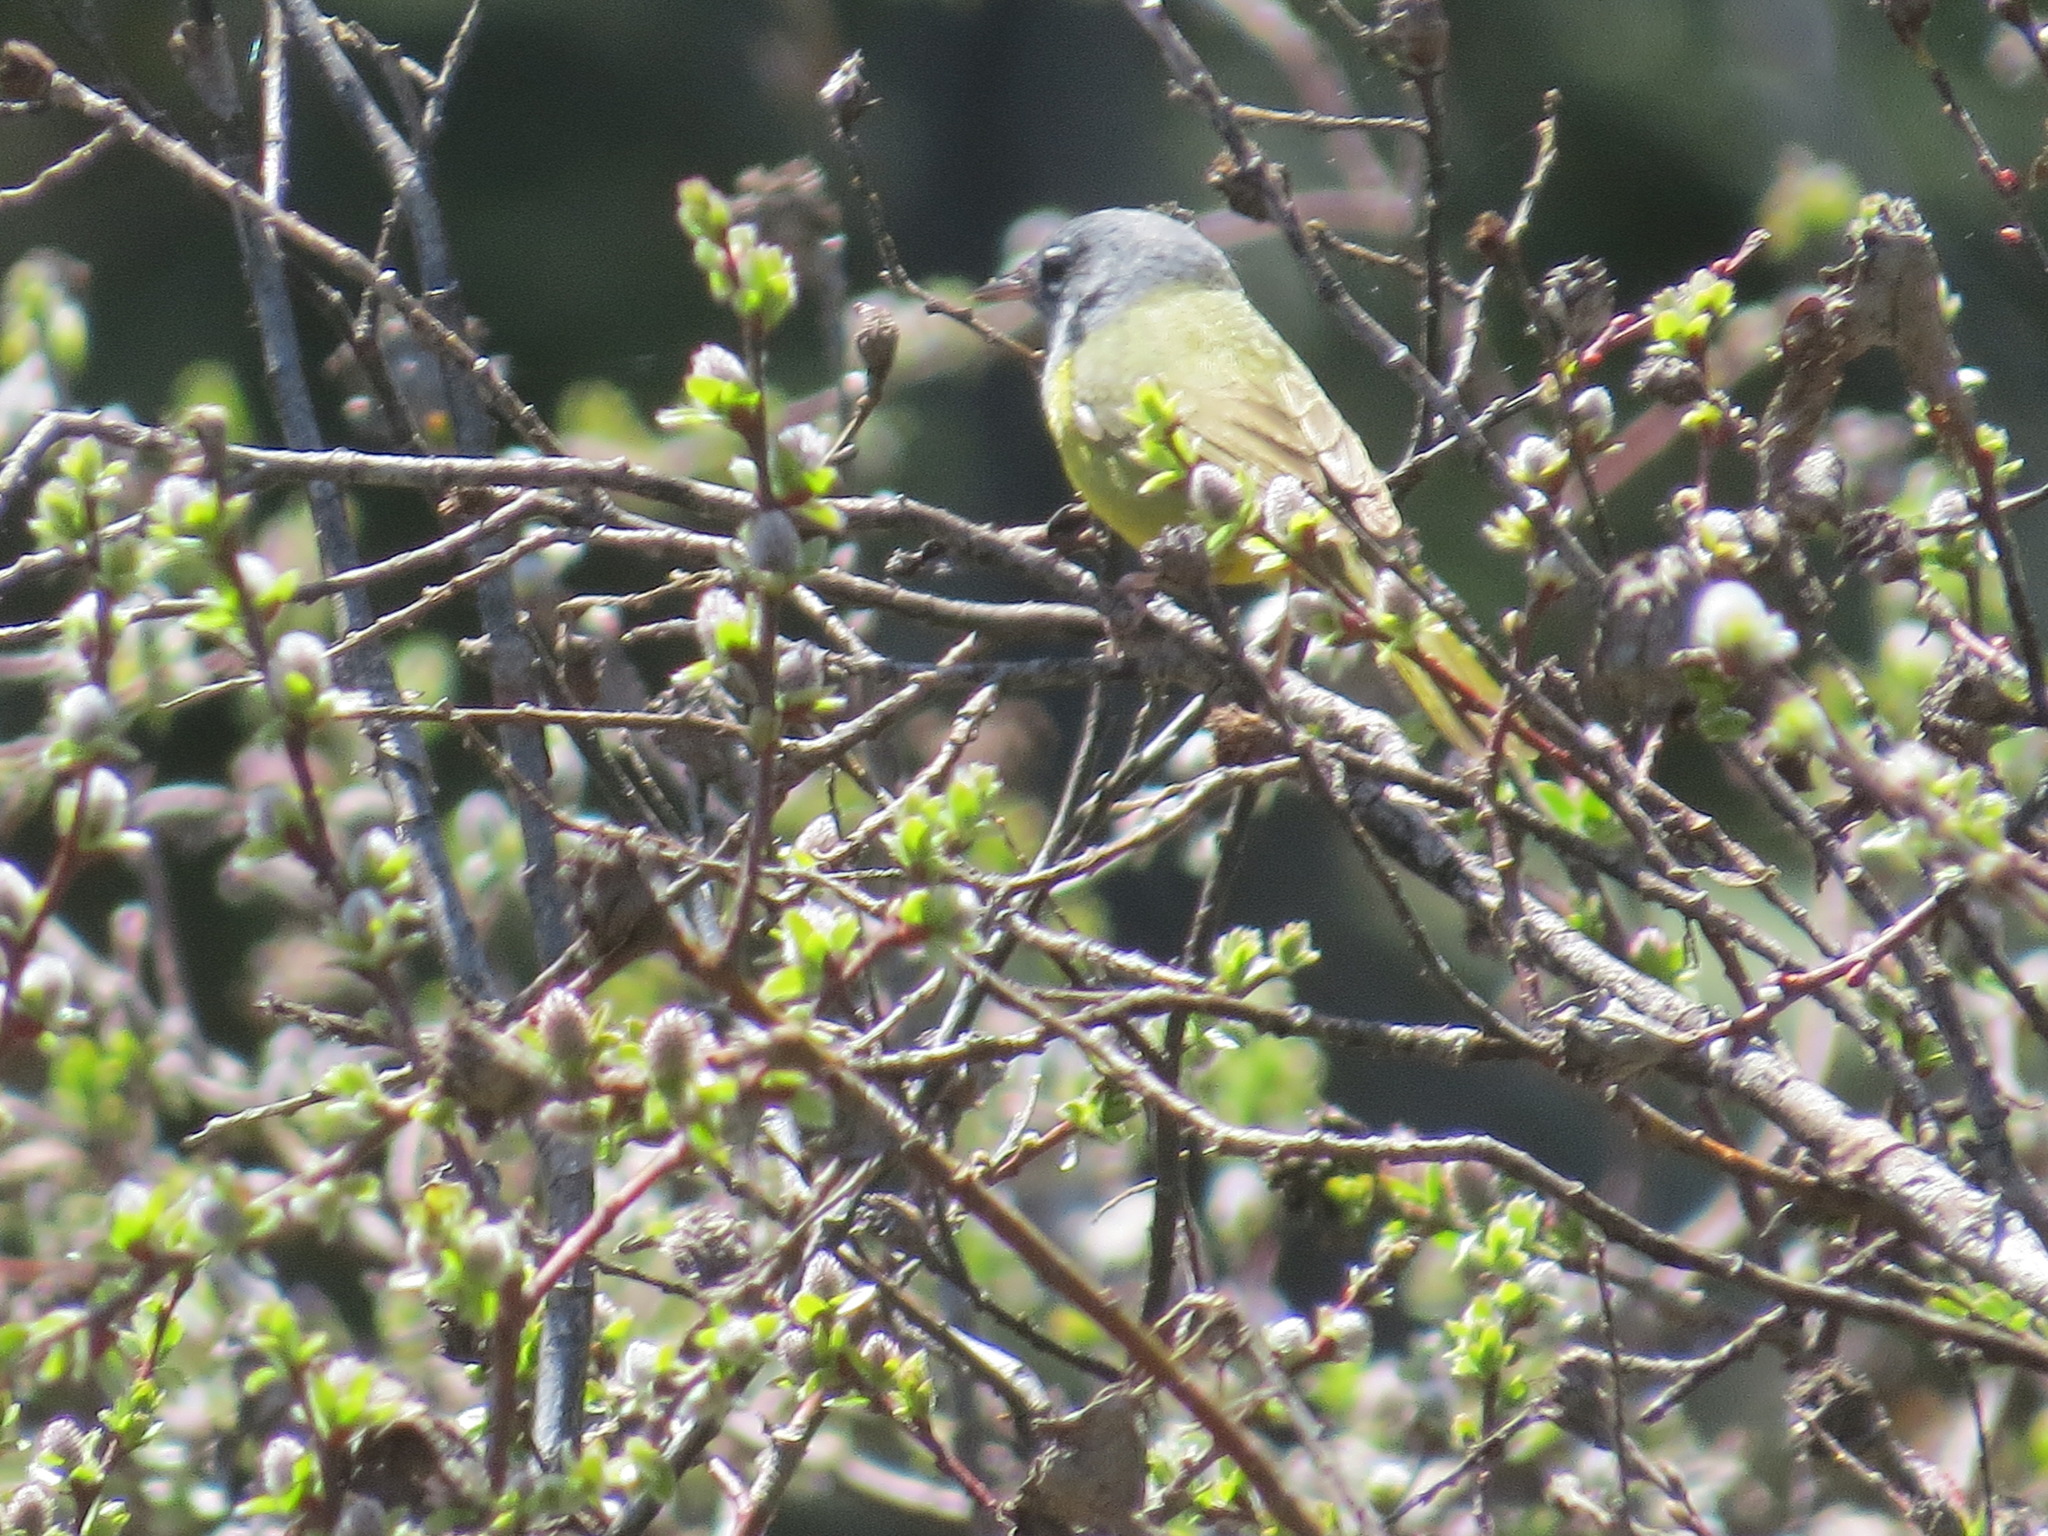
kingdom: Animalia
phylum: Chordata
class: Aves
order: Passeriformes
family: Parulidae
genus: Geothlypis
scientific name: Geothlypis tolmiei
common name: Macgillivray's warbler
